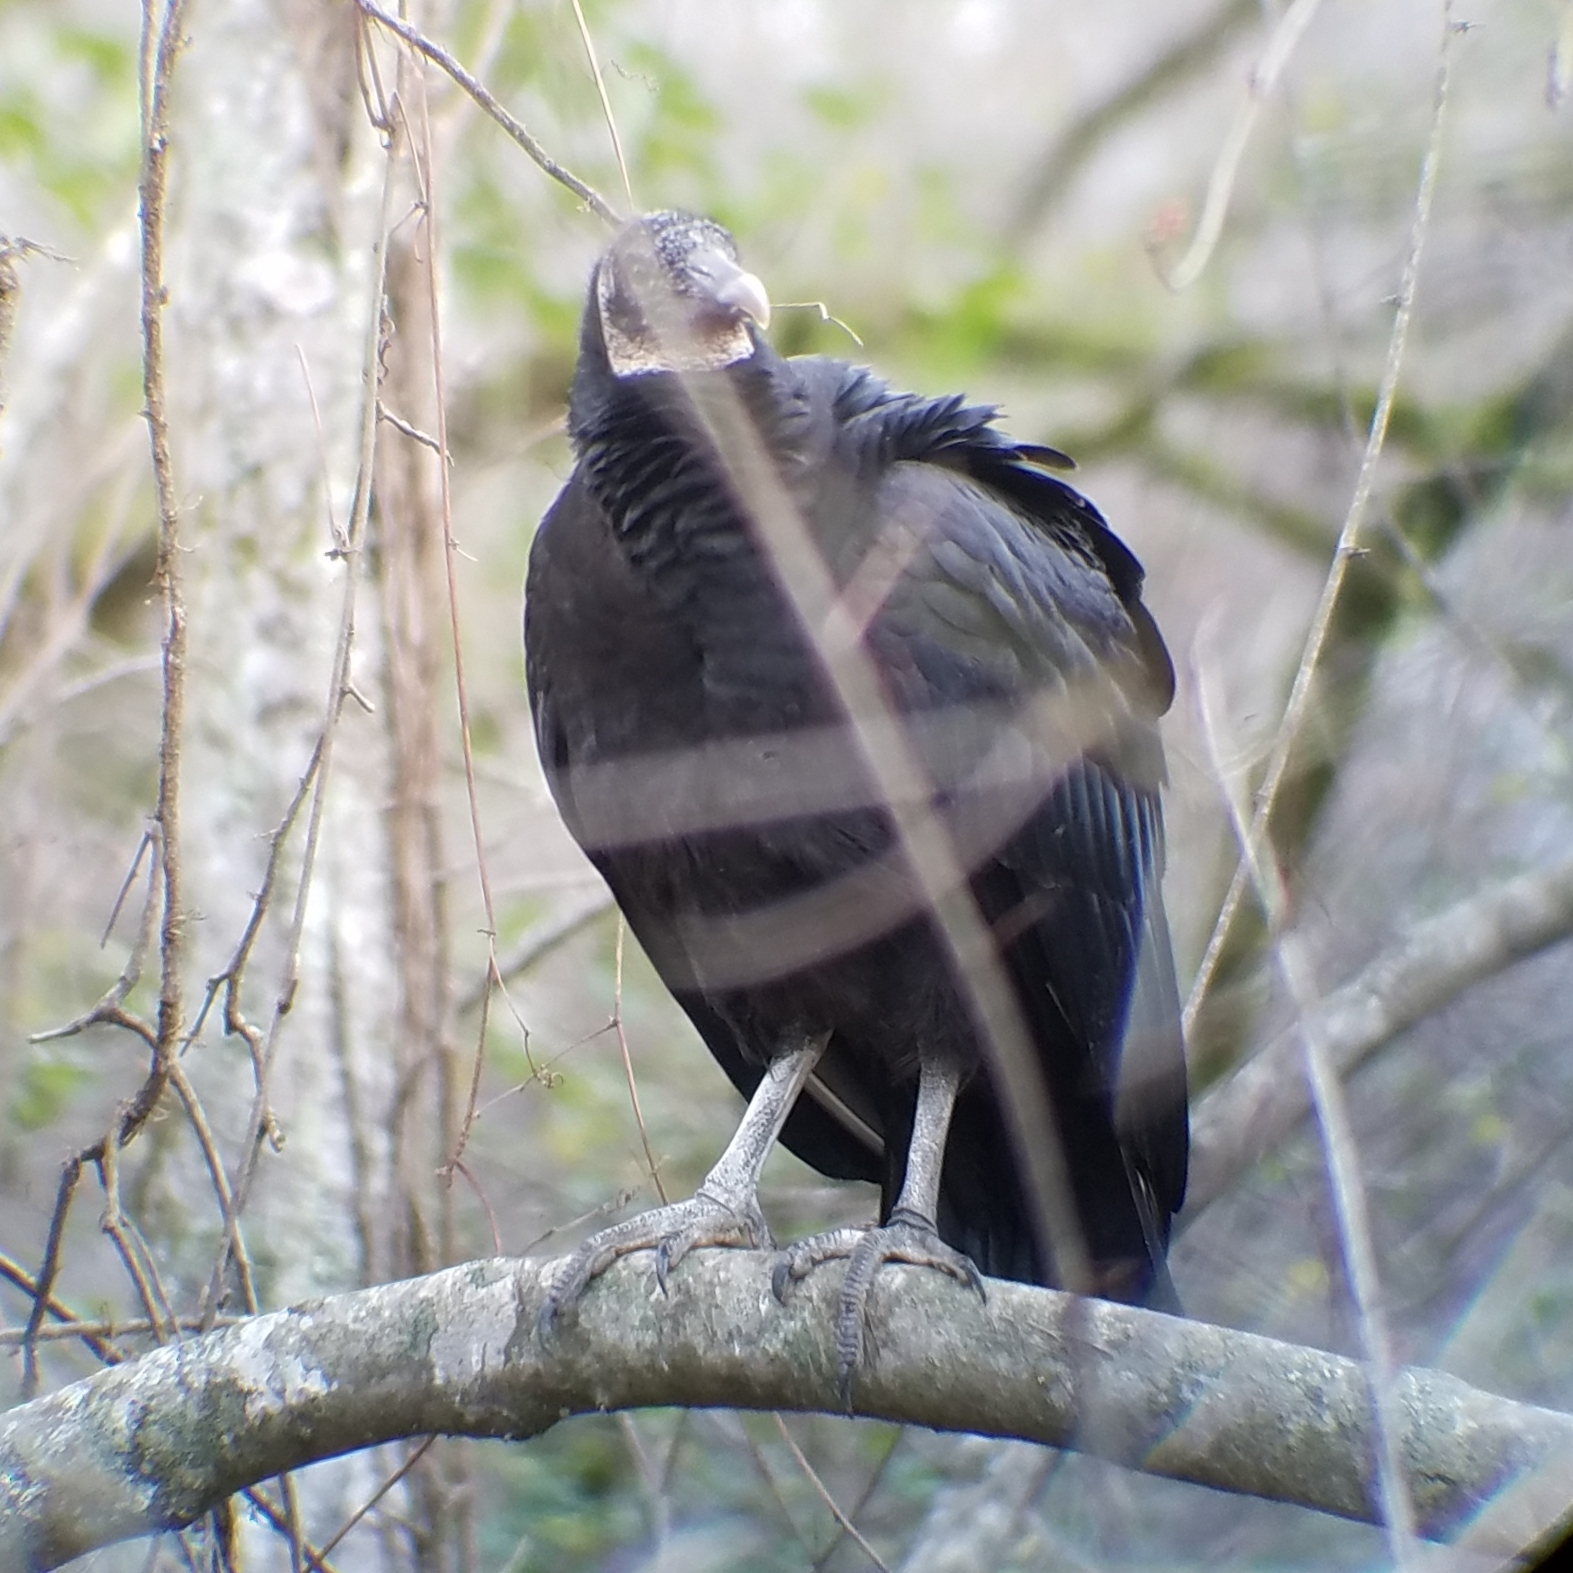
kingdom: Animalia
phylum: Chordata
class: Aves
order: Accipitriformes
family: Cathartidae
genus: Coragyps
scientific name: Coragyps atratus
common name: Black vulture
